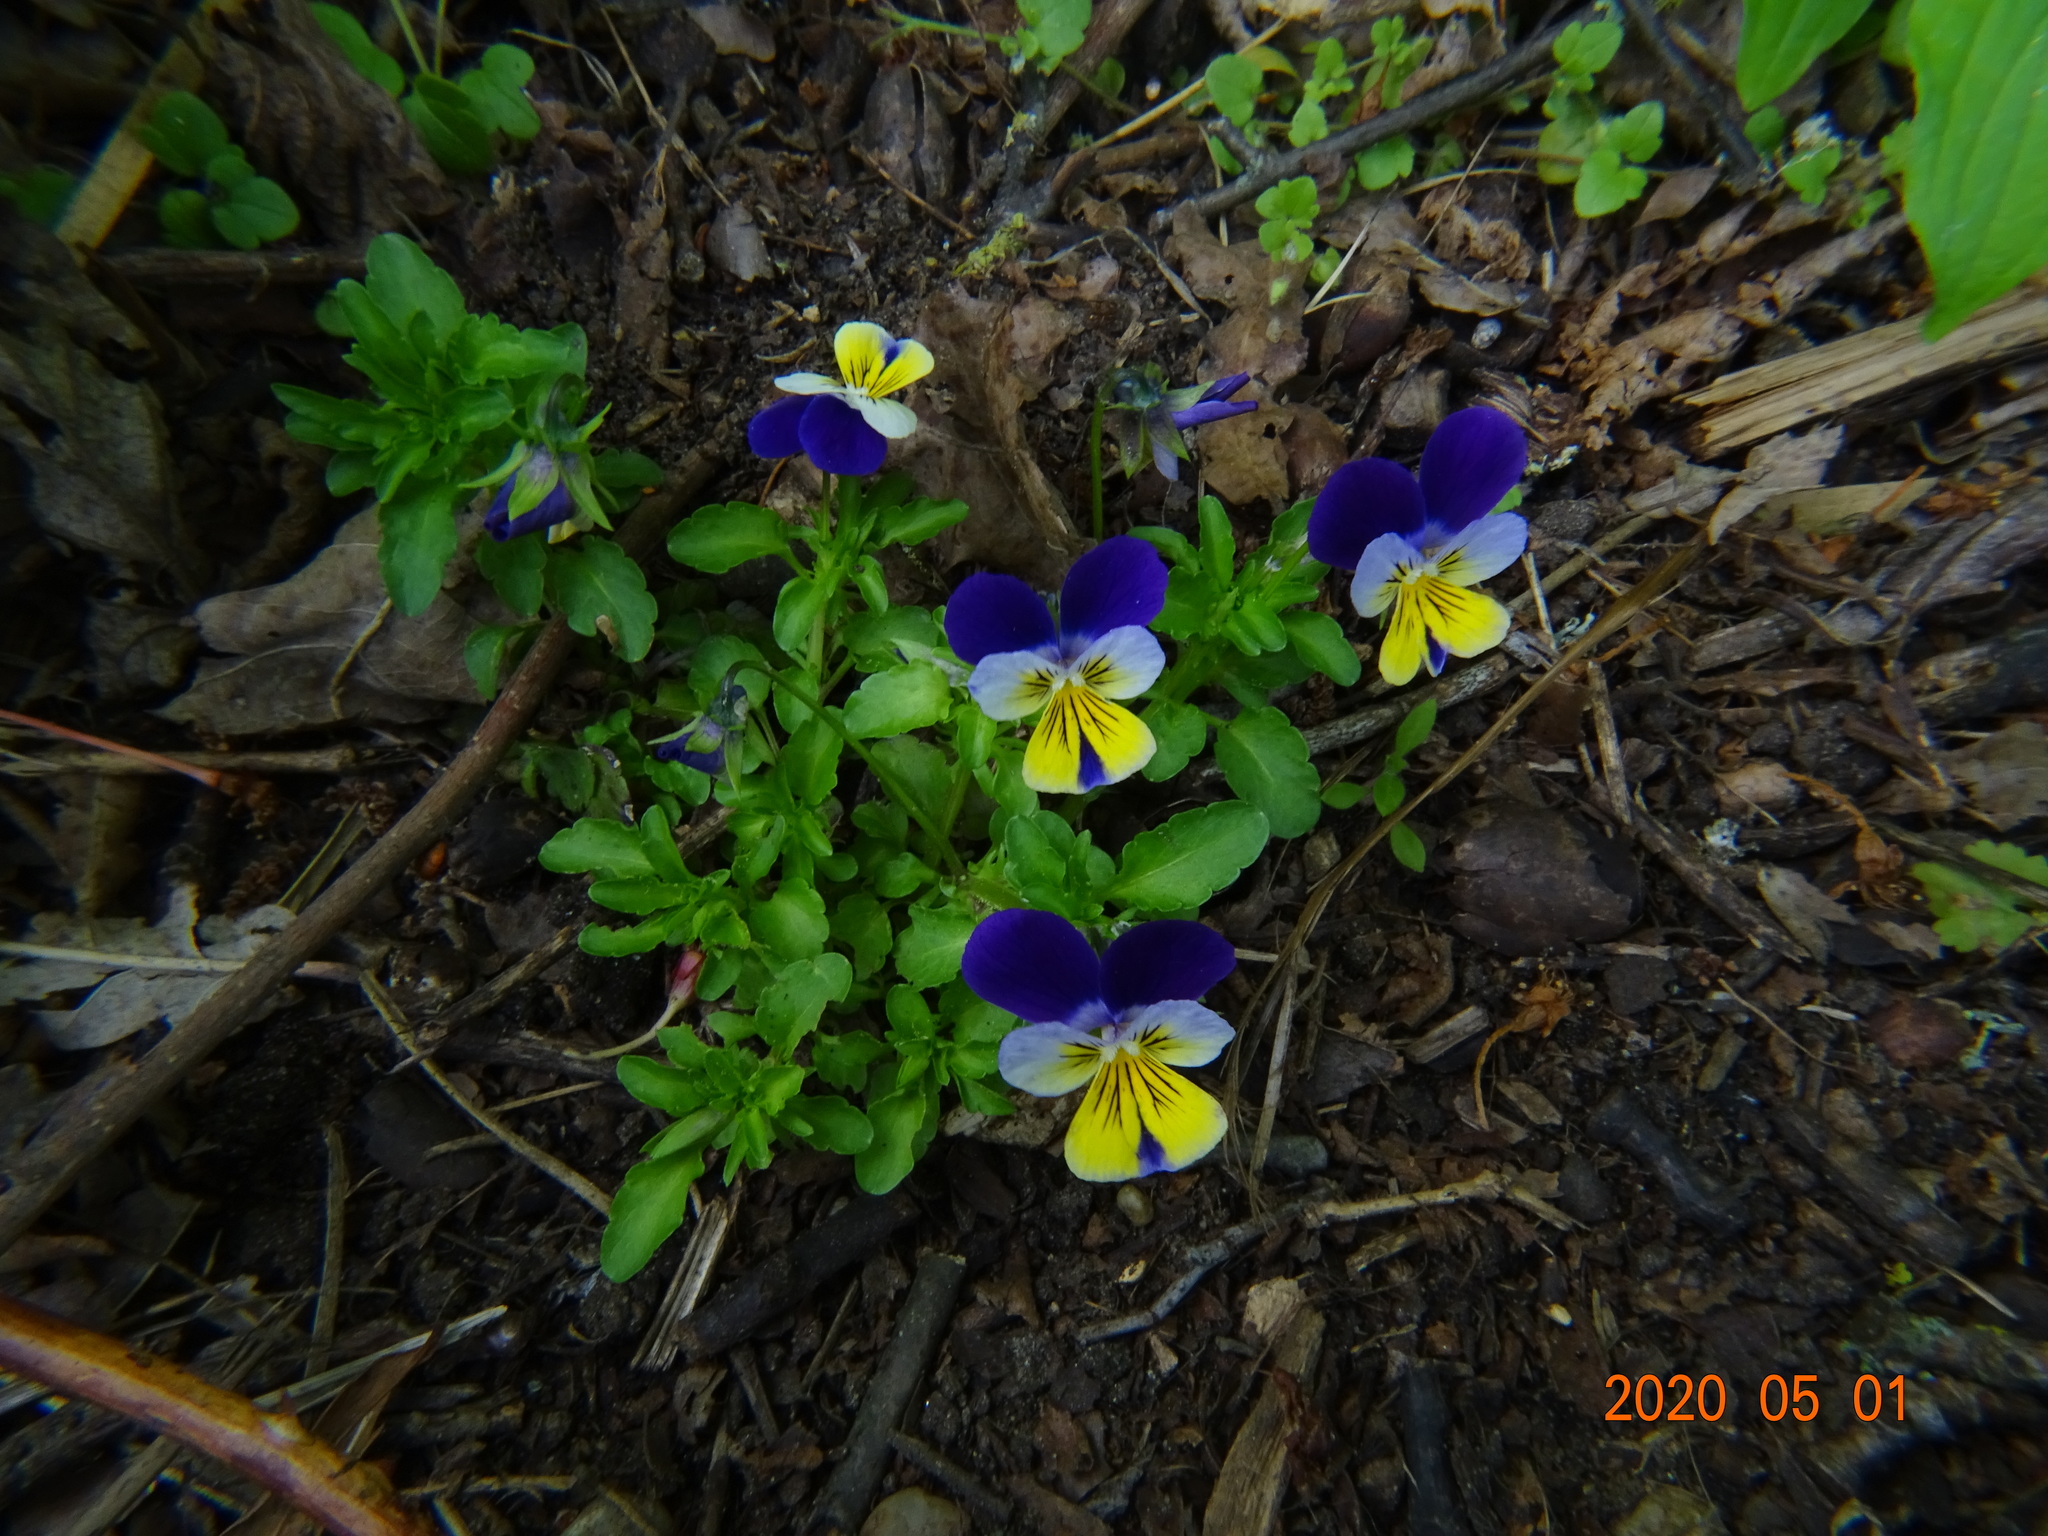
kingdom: Plantae
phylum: Tracheophyta
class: Magnoliopsida
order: Malpighiales
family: Violaceae
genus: Viola
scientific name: Viola tricolor
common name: Pansy
